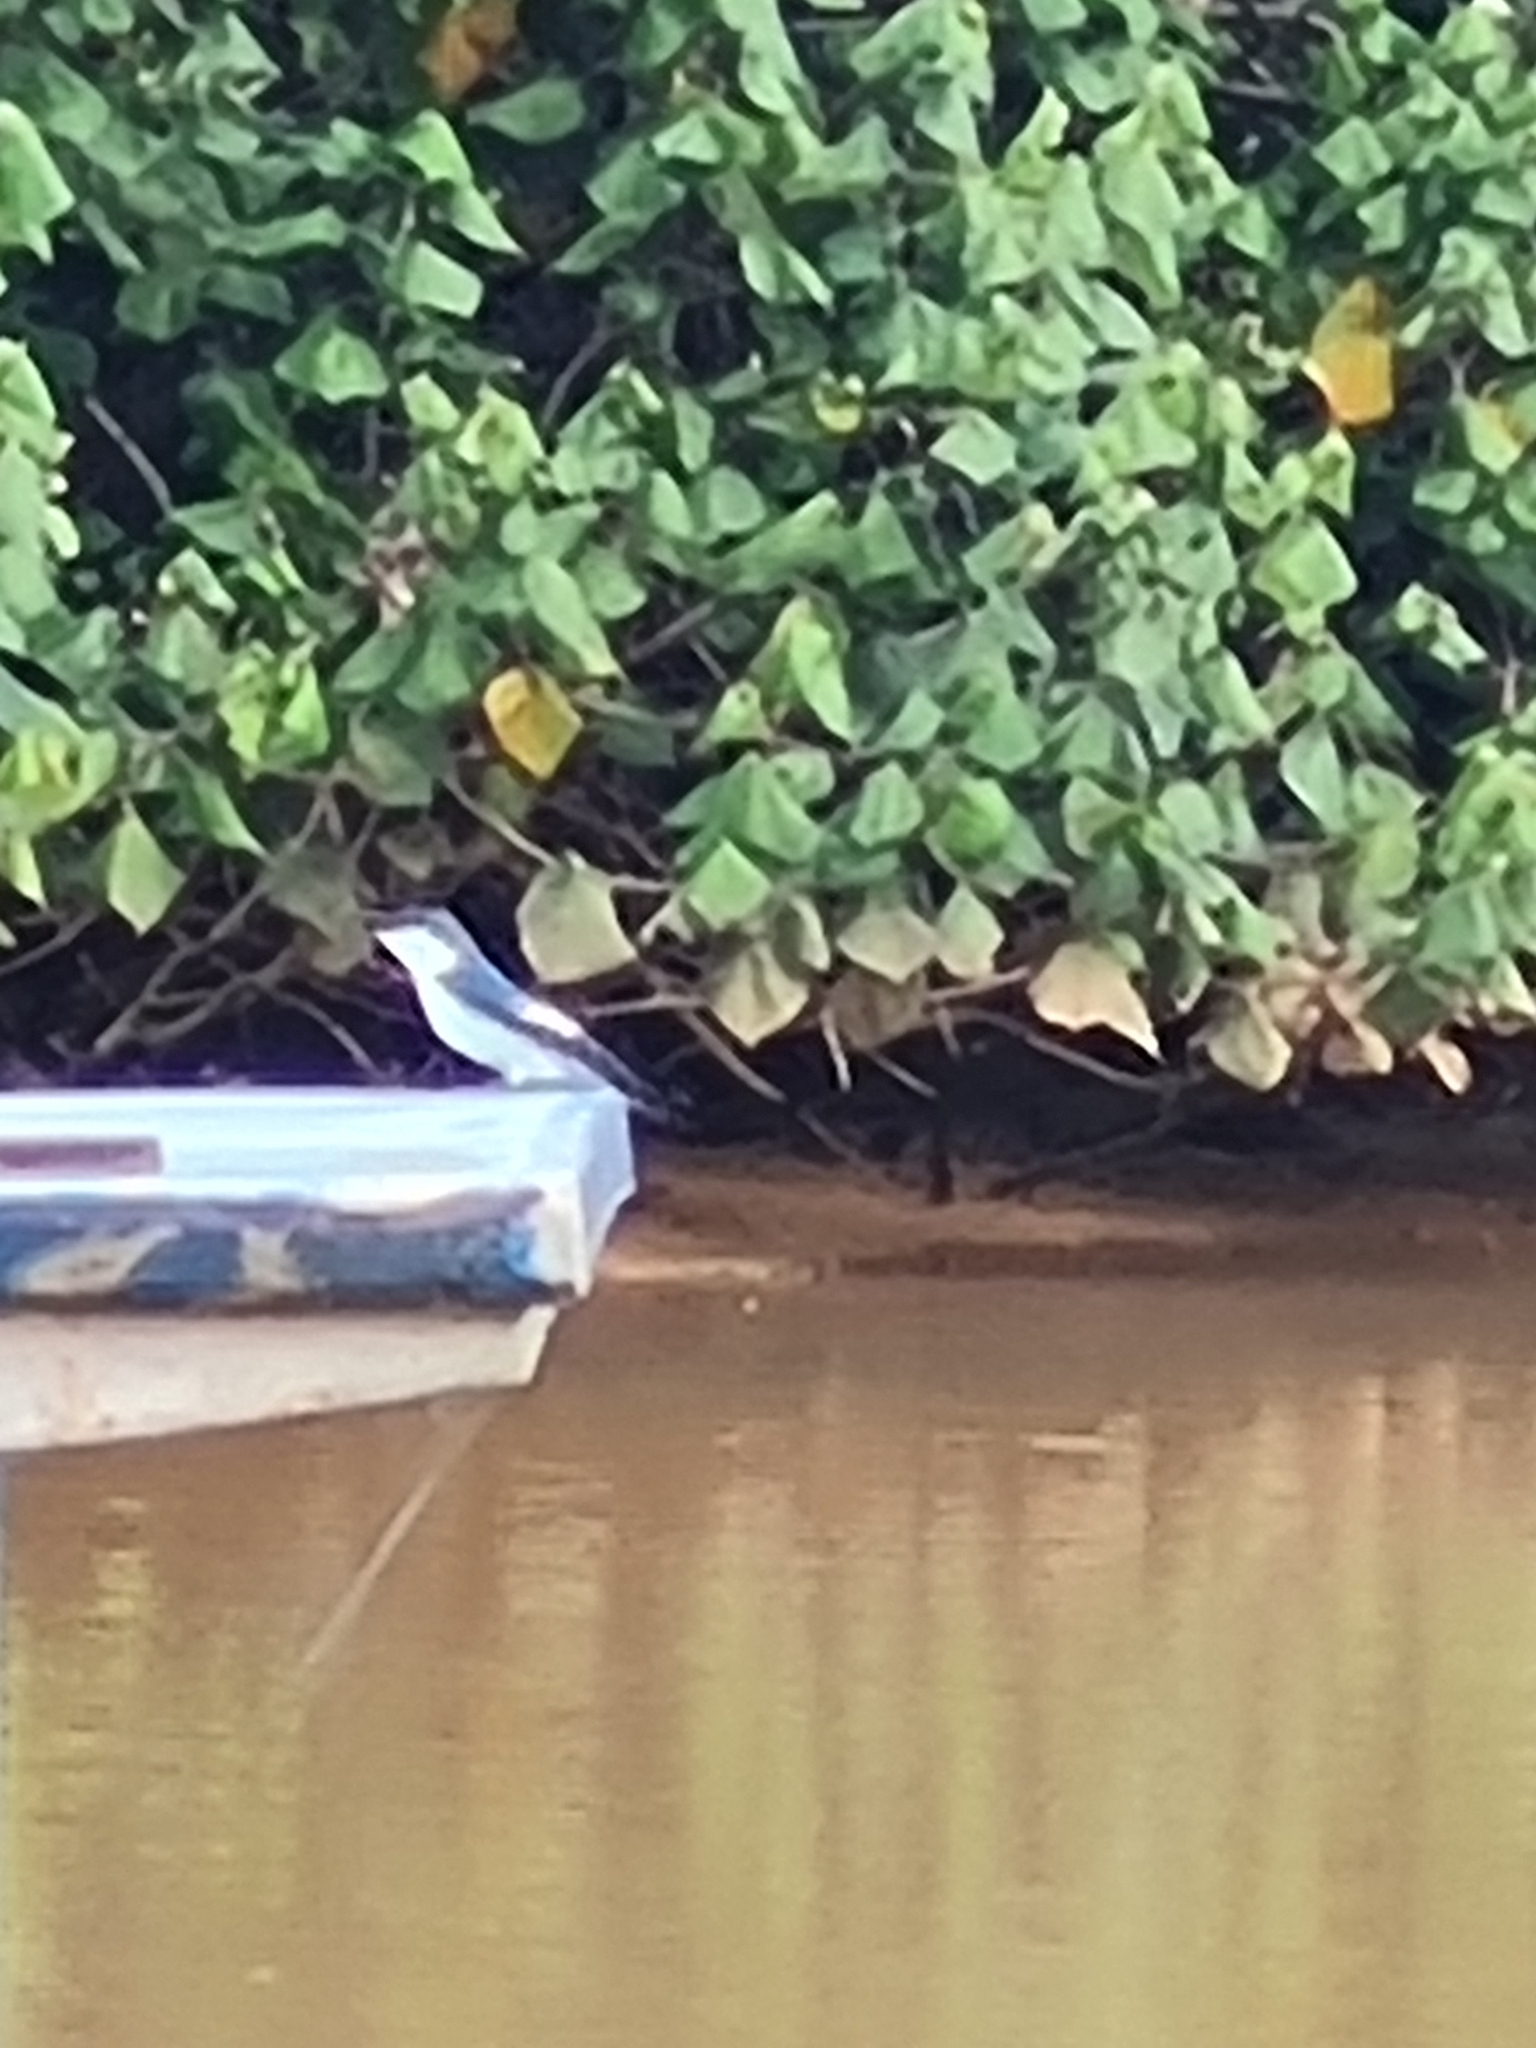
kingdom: Animalia
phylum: Chordata
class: Aves
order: Passeriformes
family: Hirundinidae
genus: Tachycineta
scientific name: Tachycineta albiventer
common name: White-winged swallow
